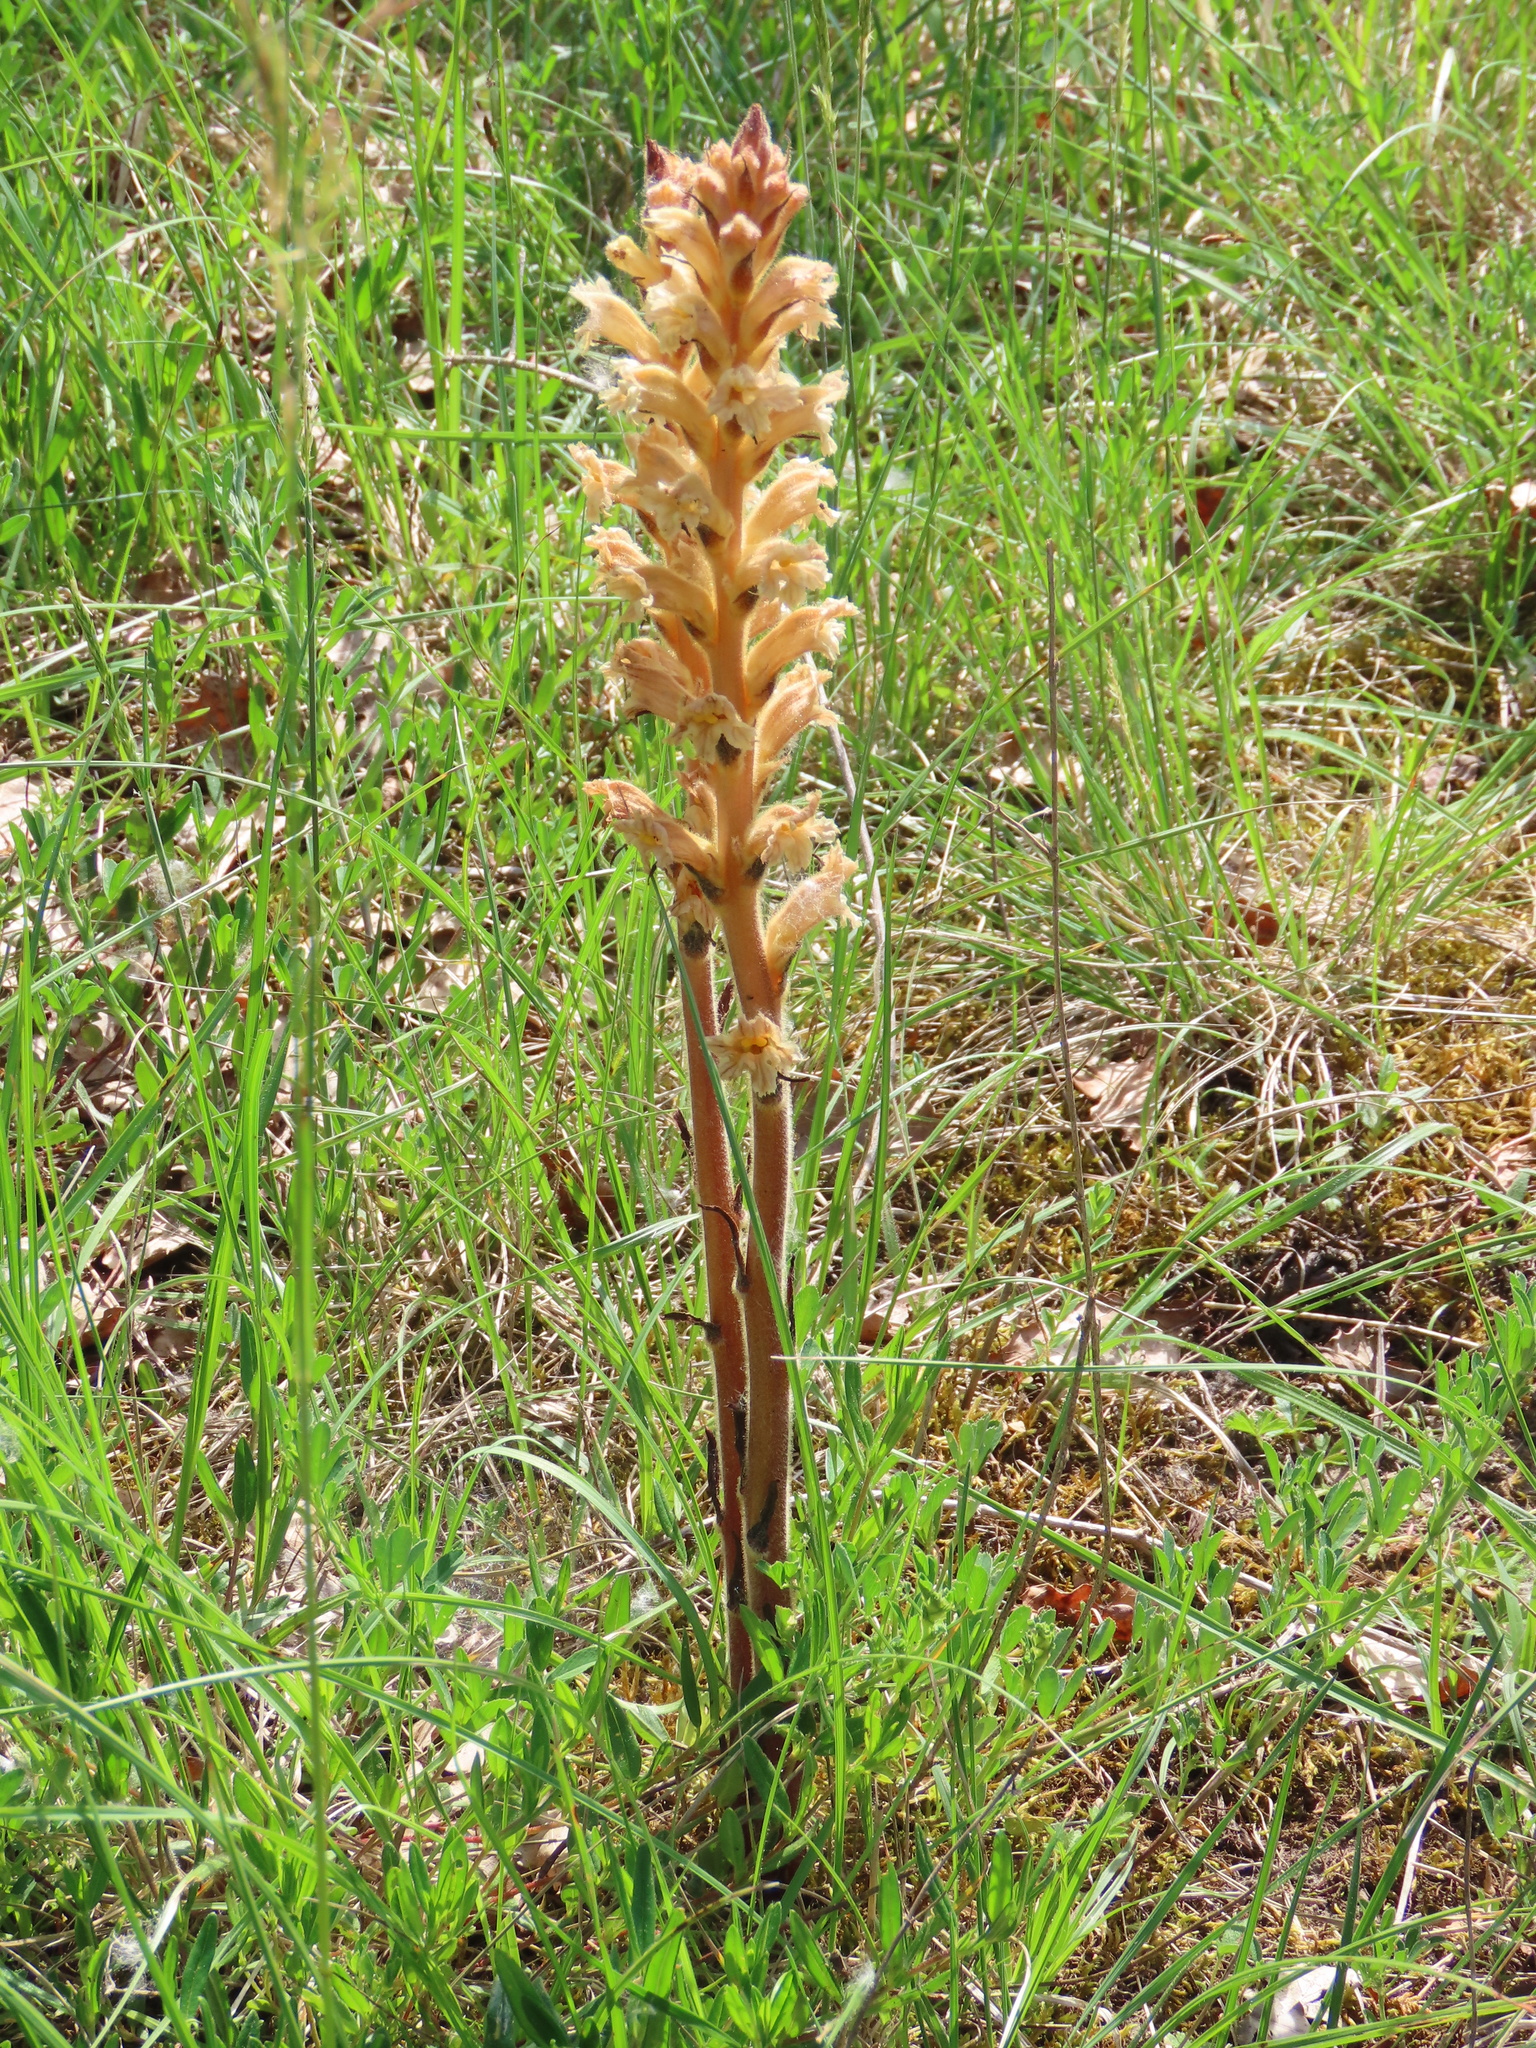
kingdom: Plantae
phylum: Tracheophyta
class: Magnoliopsida
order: Lamiales
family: Orobanchaceae
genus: Orobanche
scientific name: Orobanche lutea
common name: Yellow broomrape
